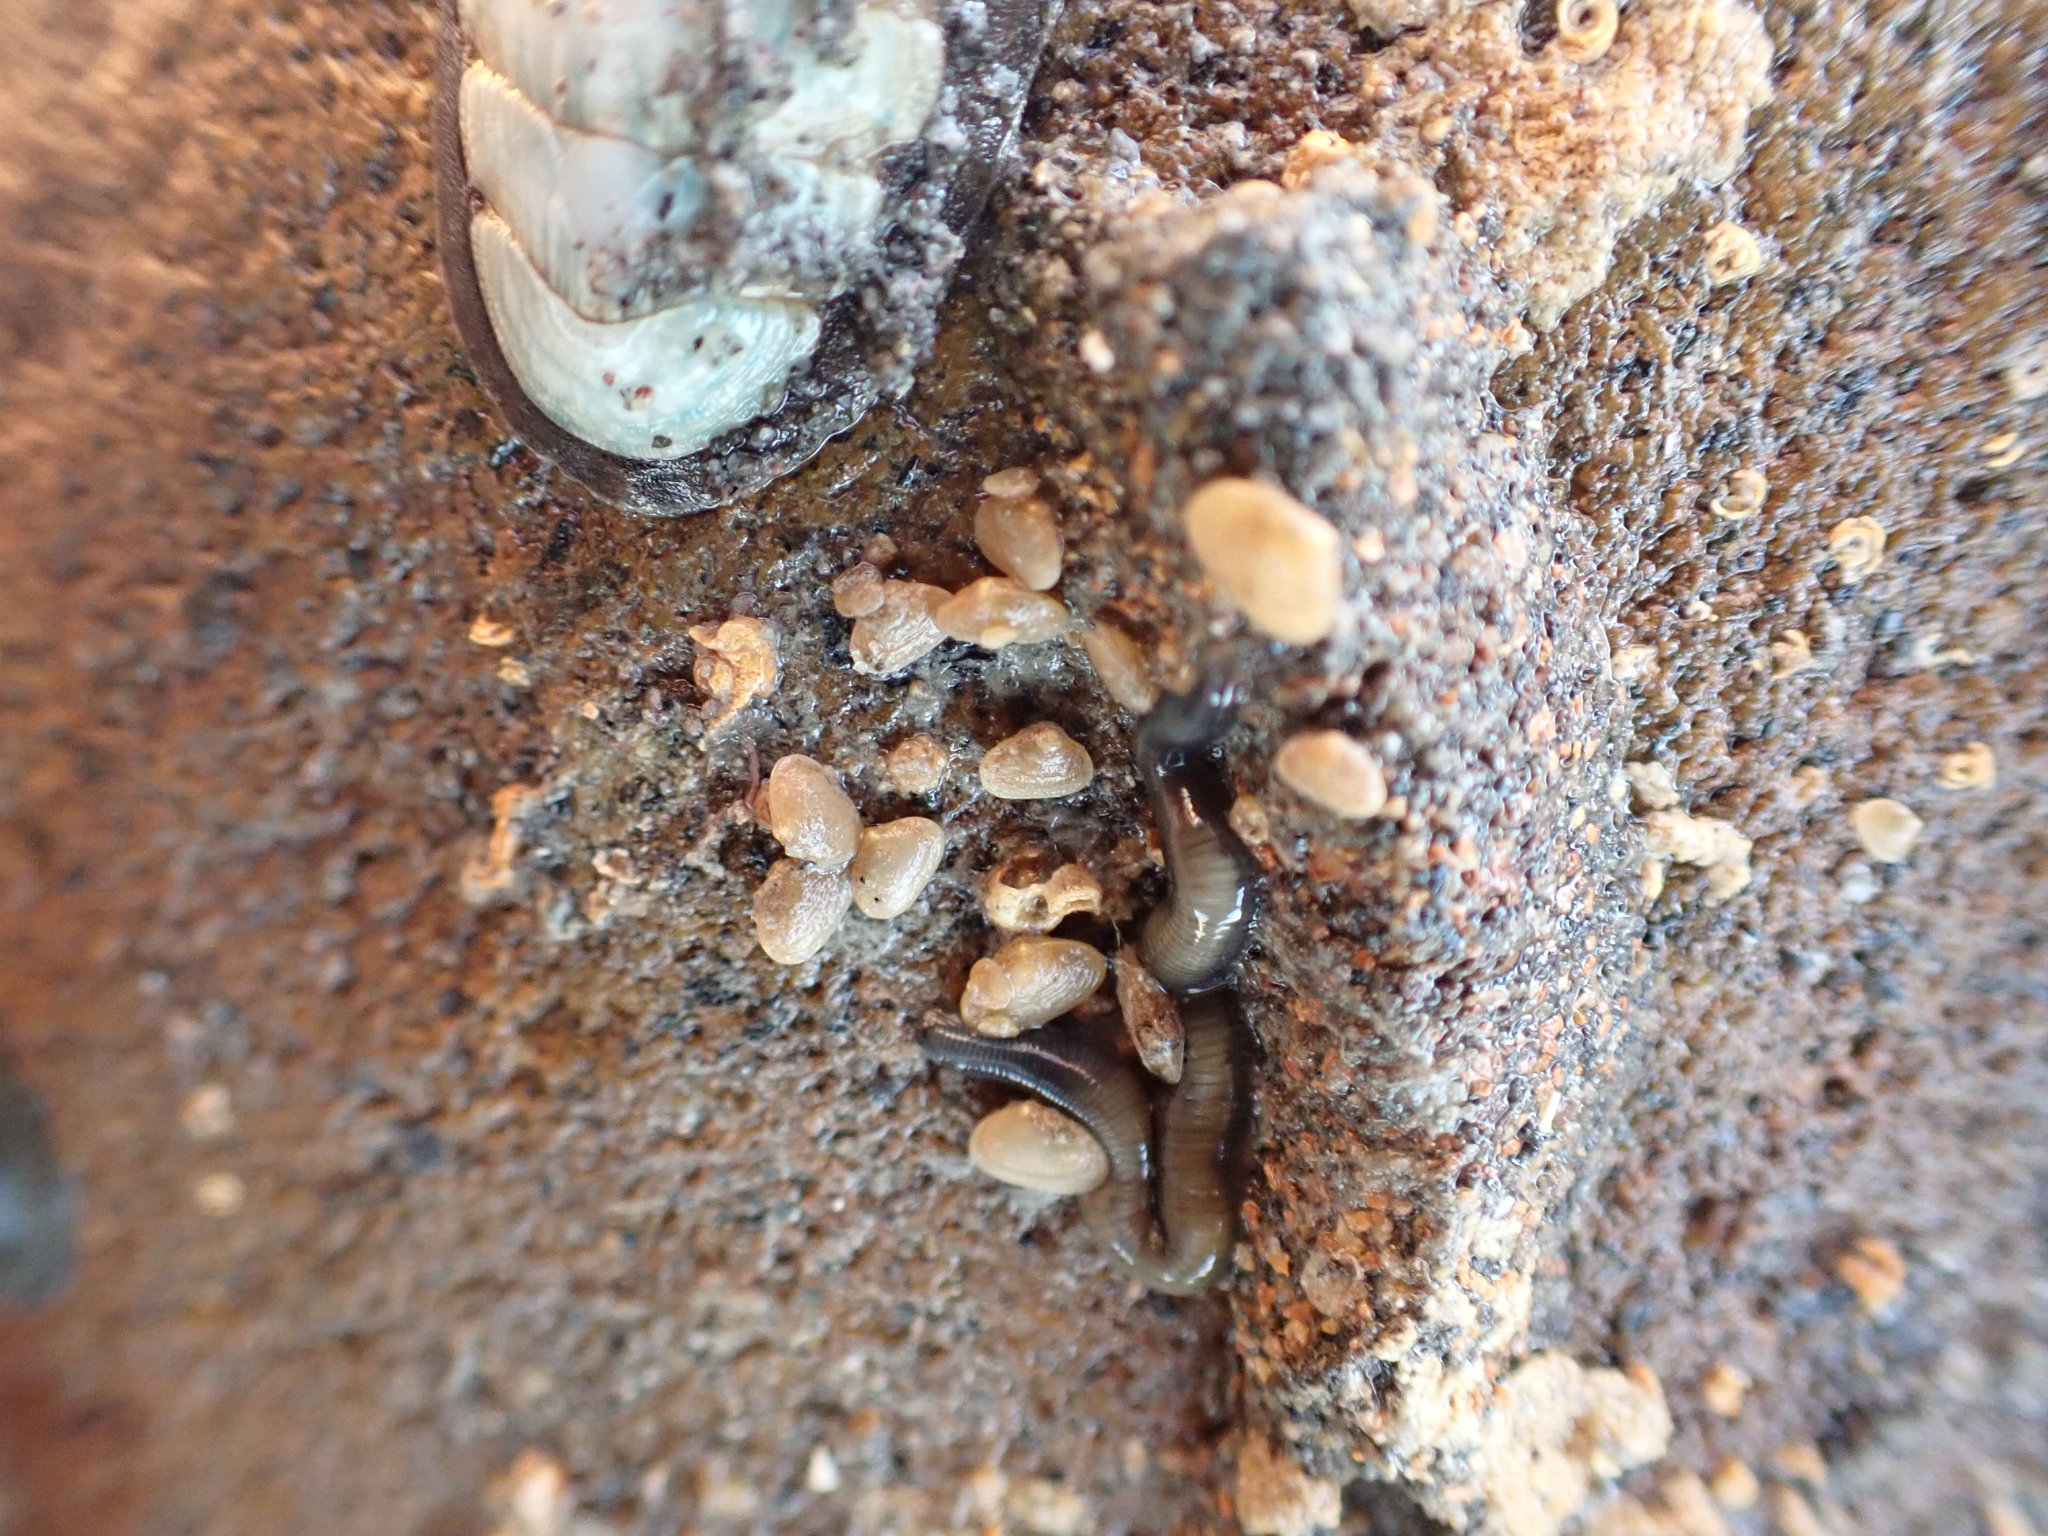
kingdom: Animalia
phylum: Mollusca
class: Bivalvia
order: Galeommatida
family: Lasaeidae
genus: Borniola
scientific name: Borniola reniformis
